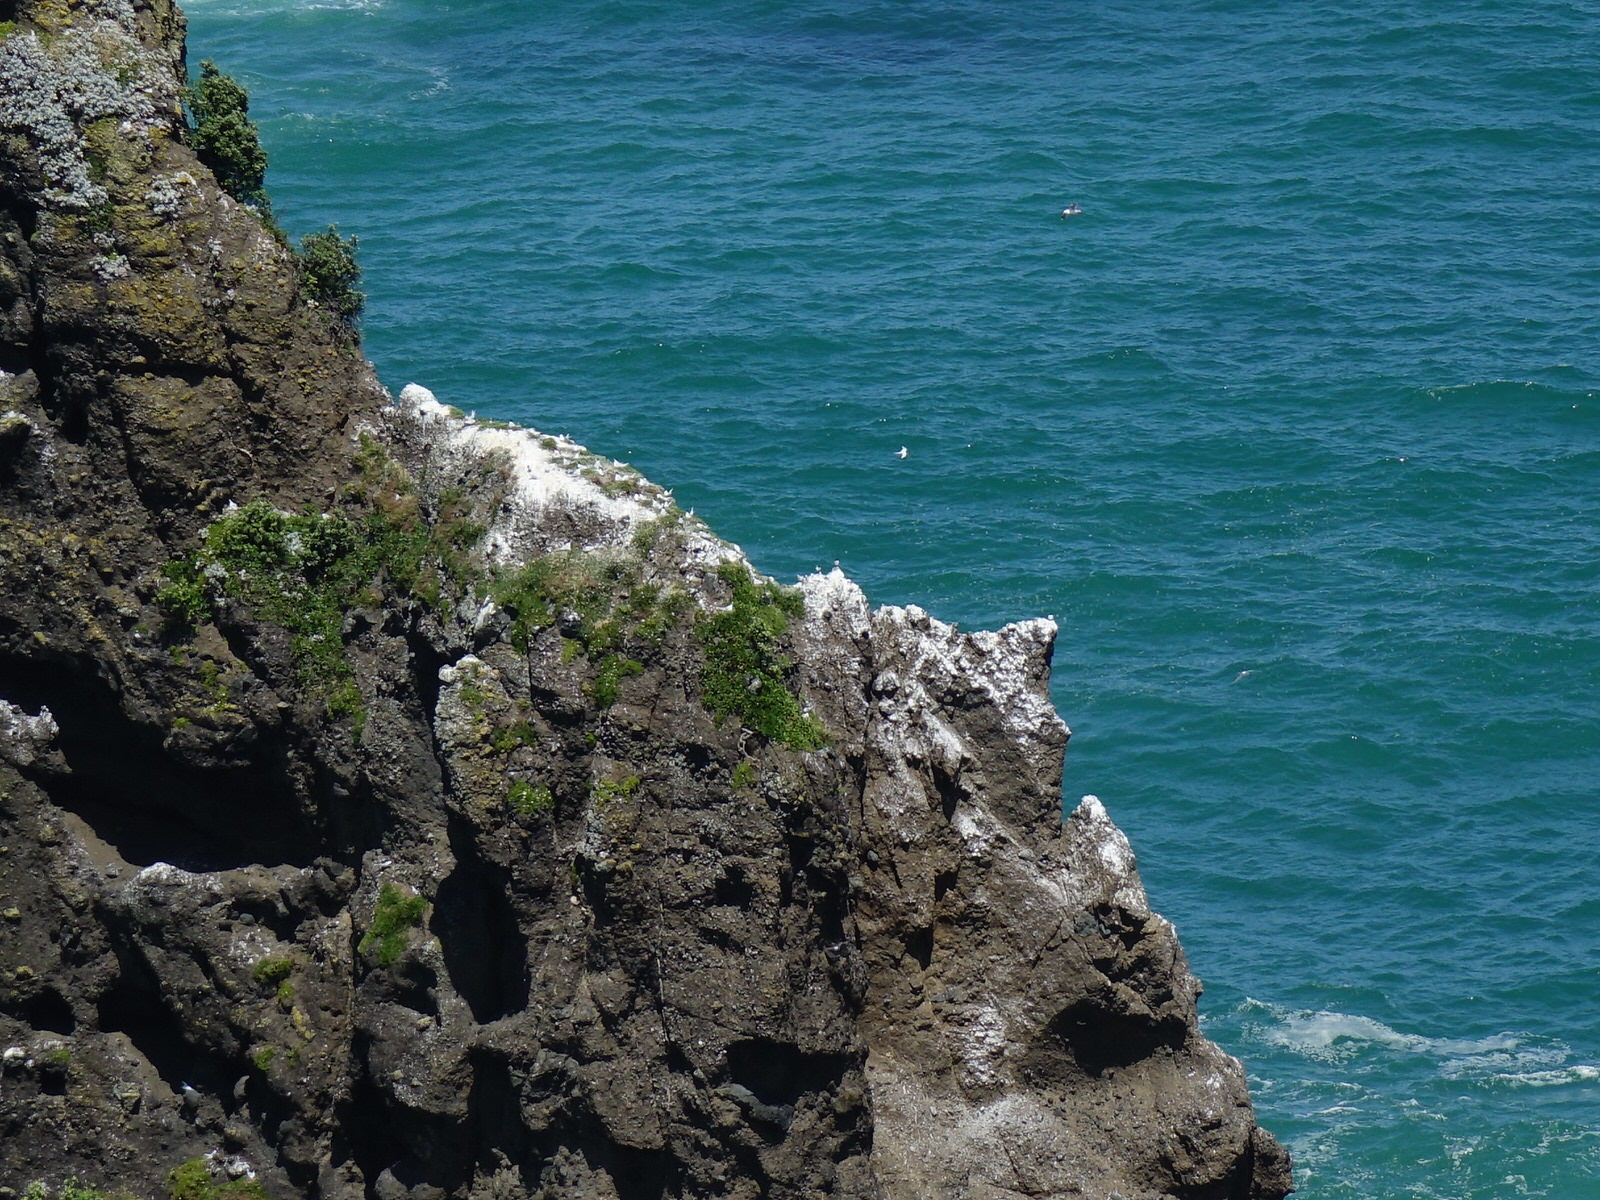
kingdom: Animalia
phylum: Chordata
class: Aves
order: Charadriiformes
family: Laridae
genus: Sterna
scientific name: Sterna striata
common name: White-fronted tern
